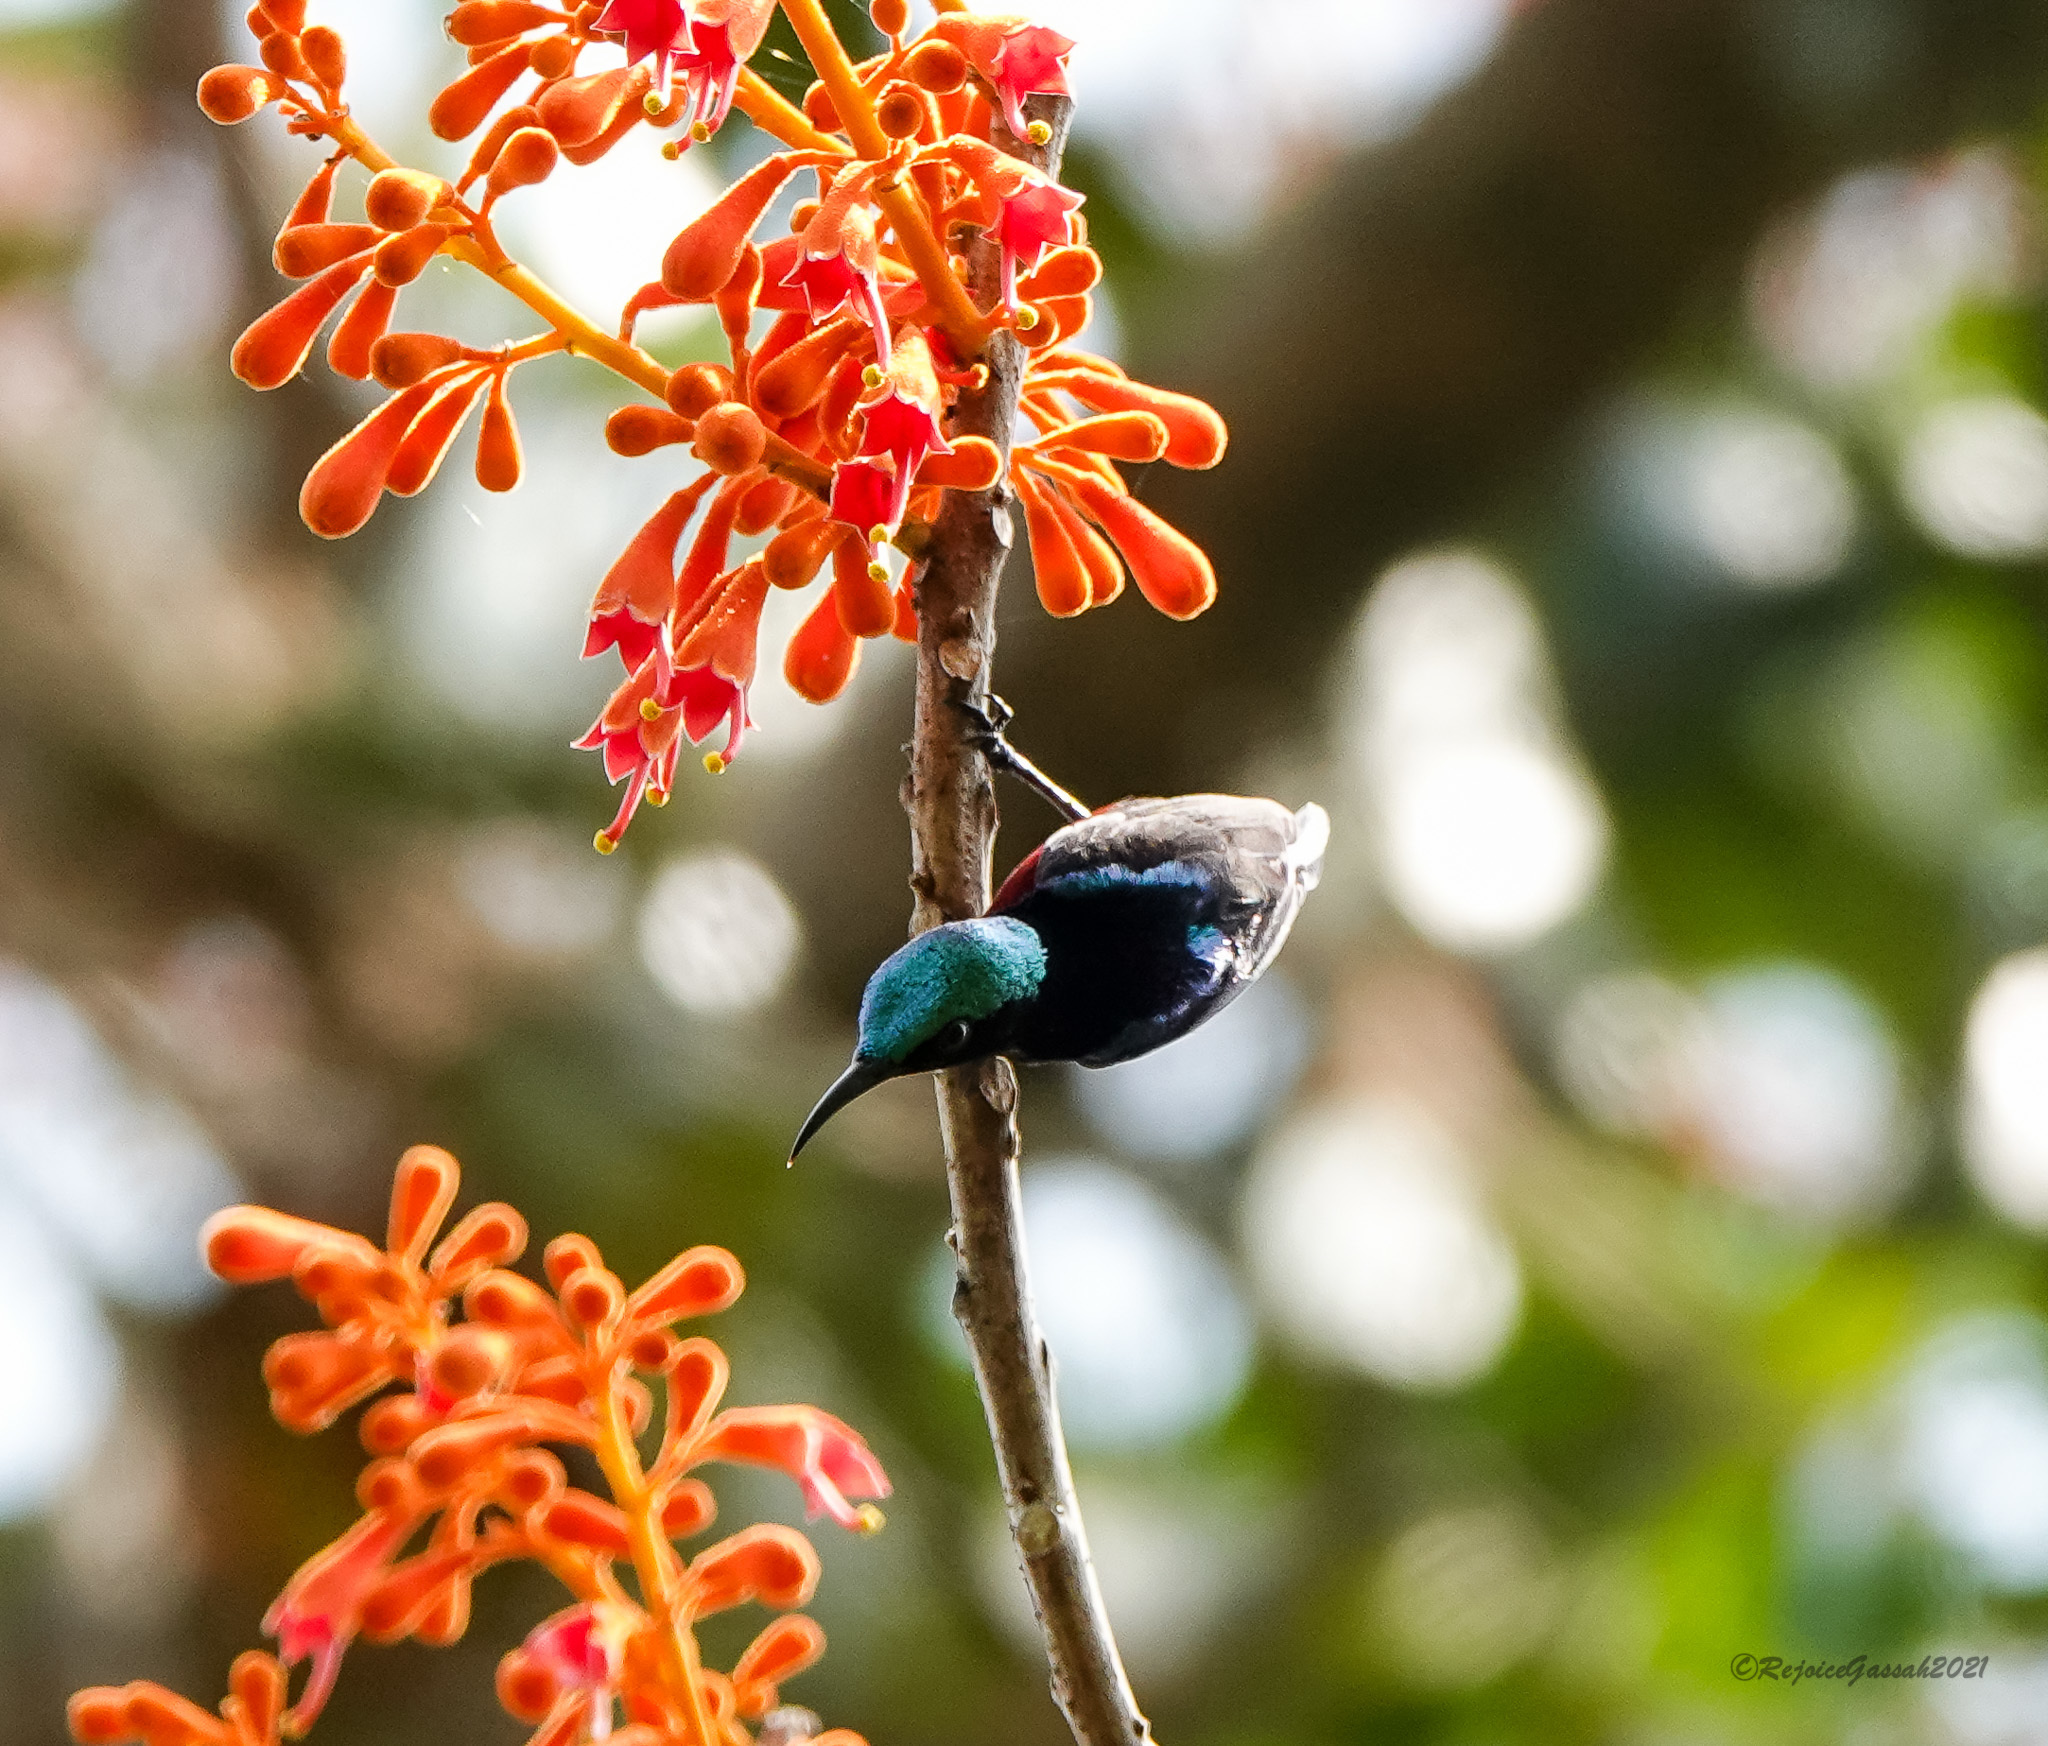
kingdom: Animalia
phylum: Chordata
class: Aves
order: Passeriformes
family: Nectariniidae
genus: Leptocoma
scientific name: Leptocoma brasiliana
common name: Van hasselt's sunbird
